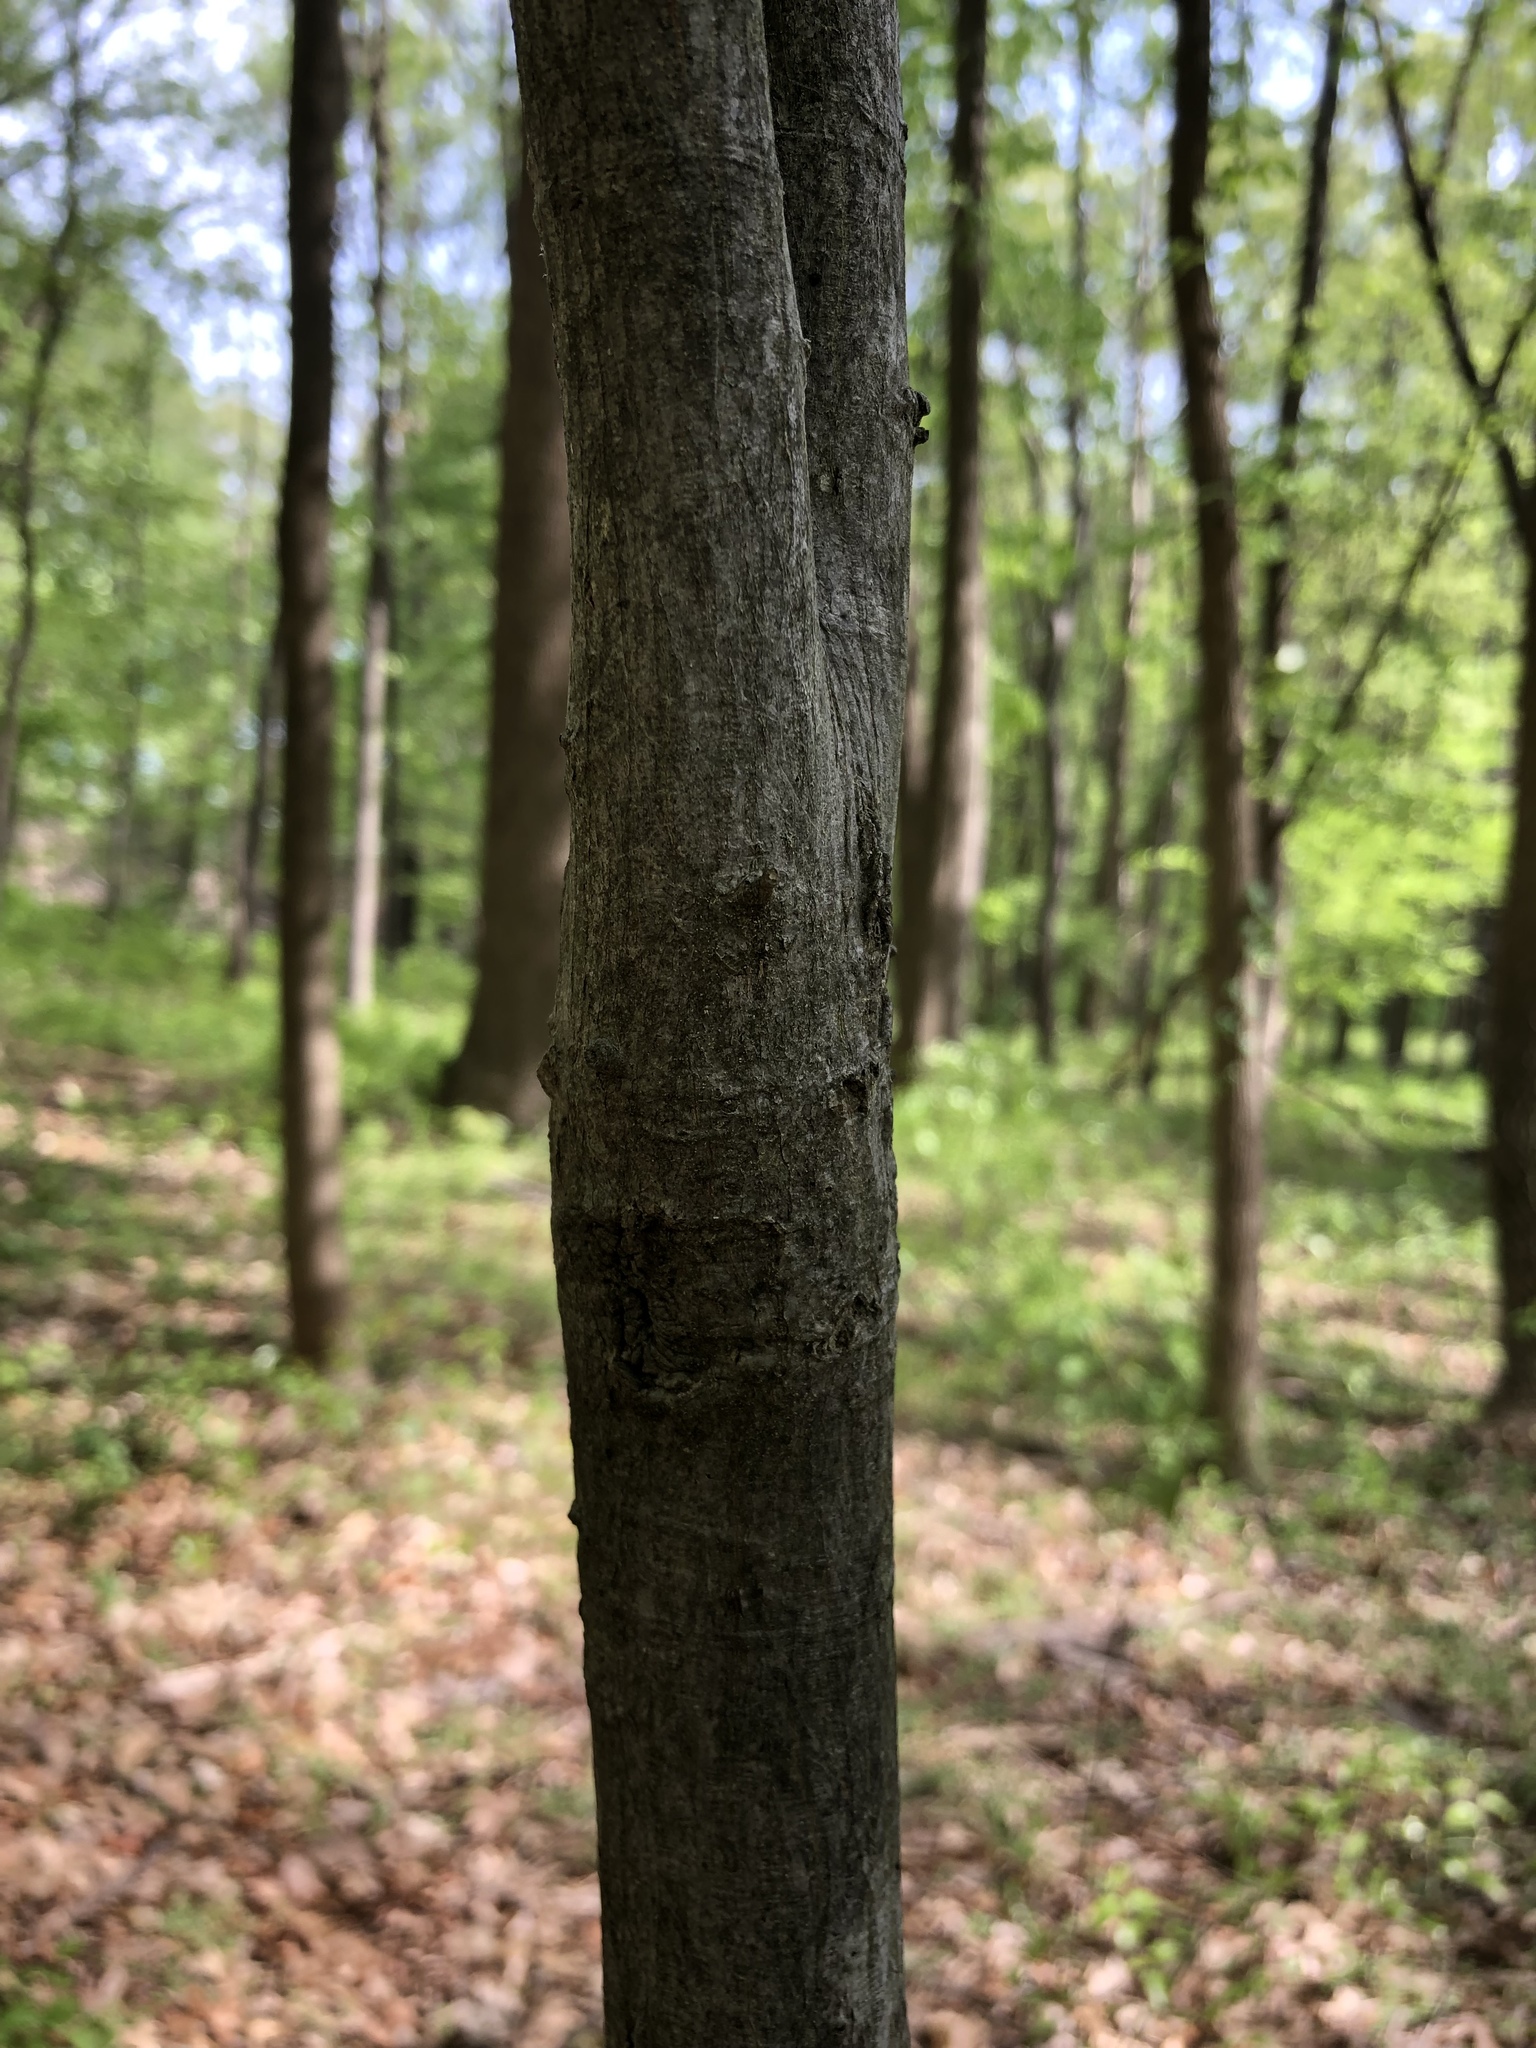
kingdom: Plantae
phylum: Tracheophyta
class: Magnoliopsida
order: Fagales
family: Juglandaceae
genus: Carya
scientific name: Carya alba
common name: Mockernut hickory
